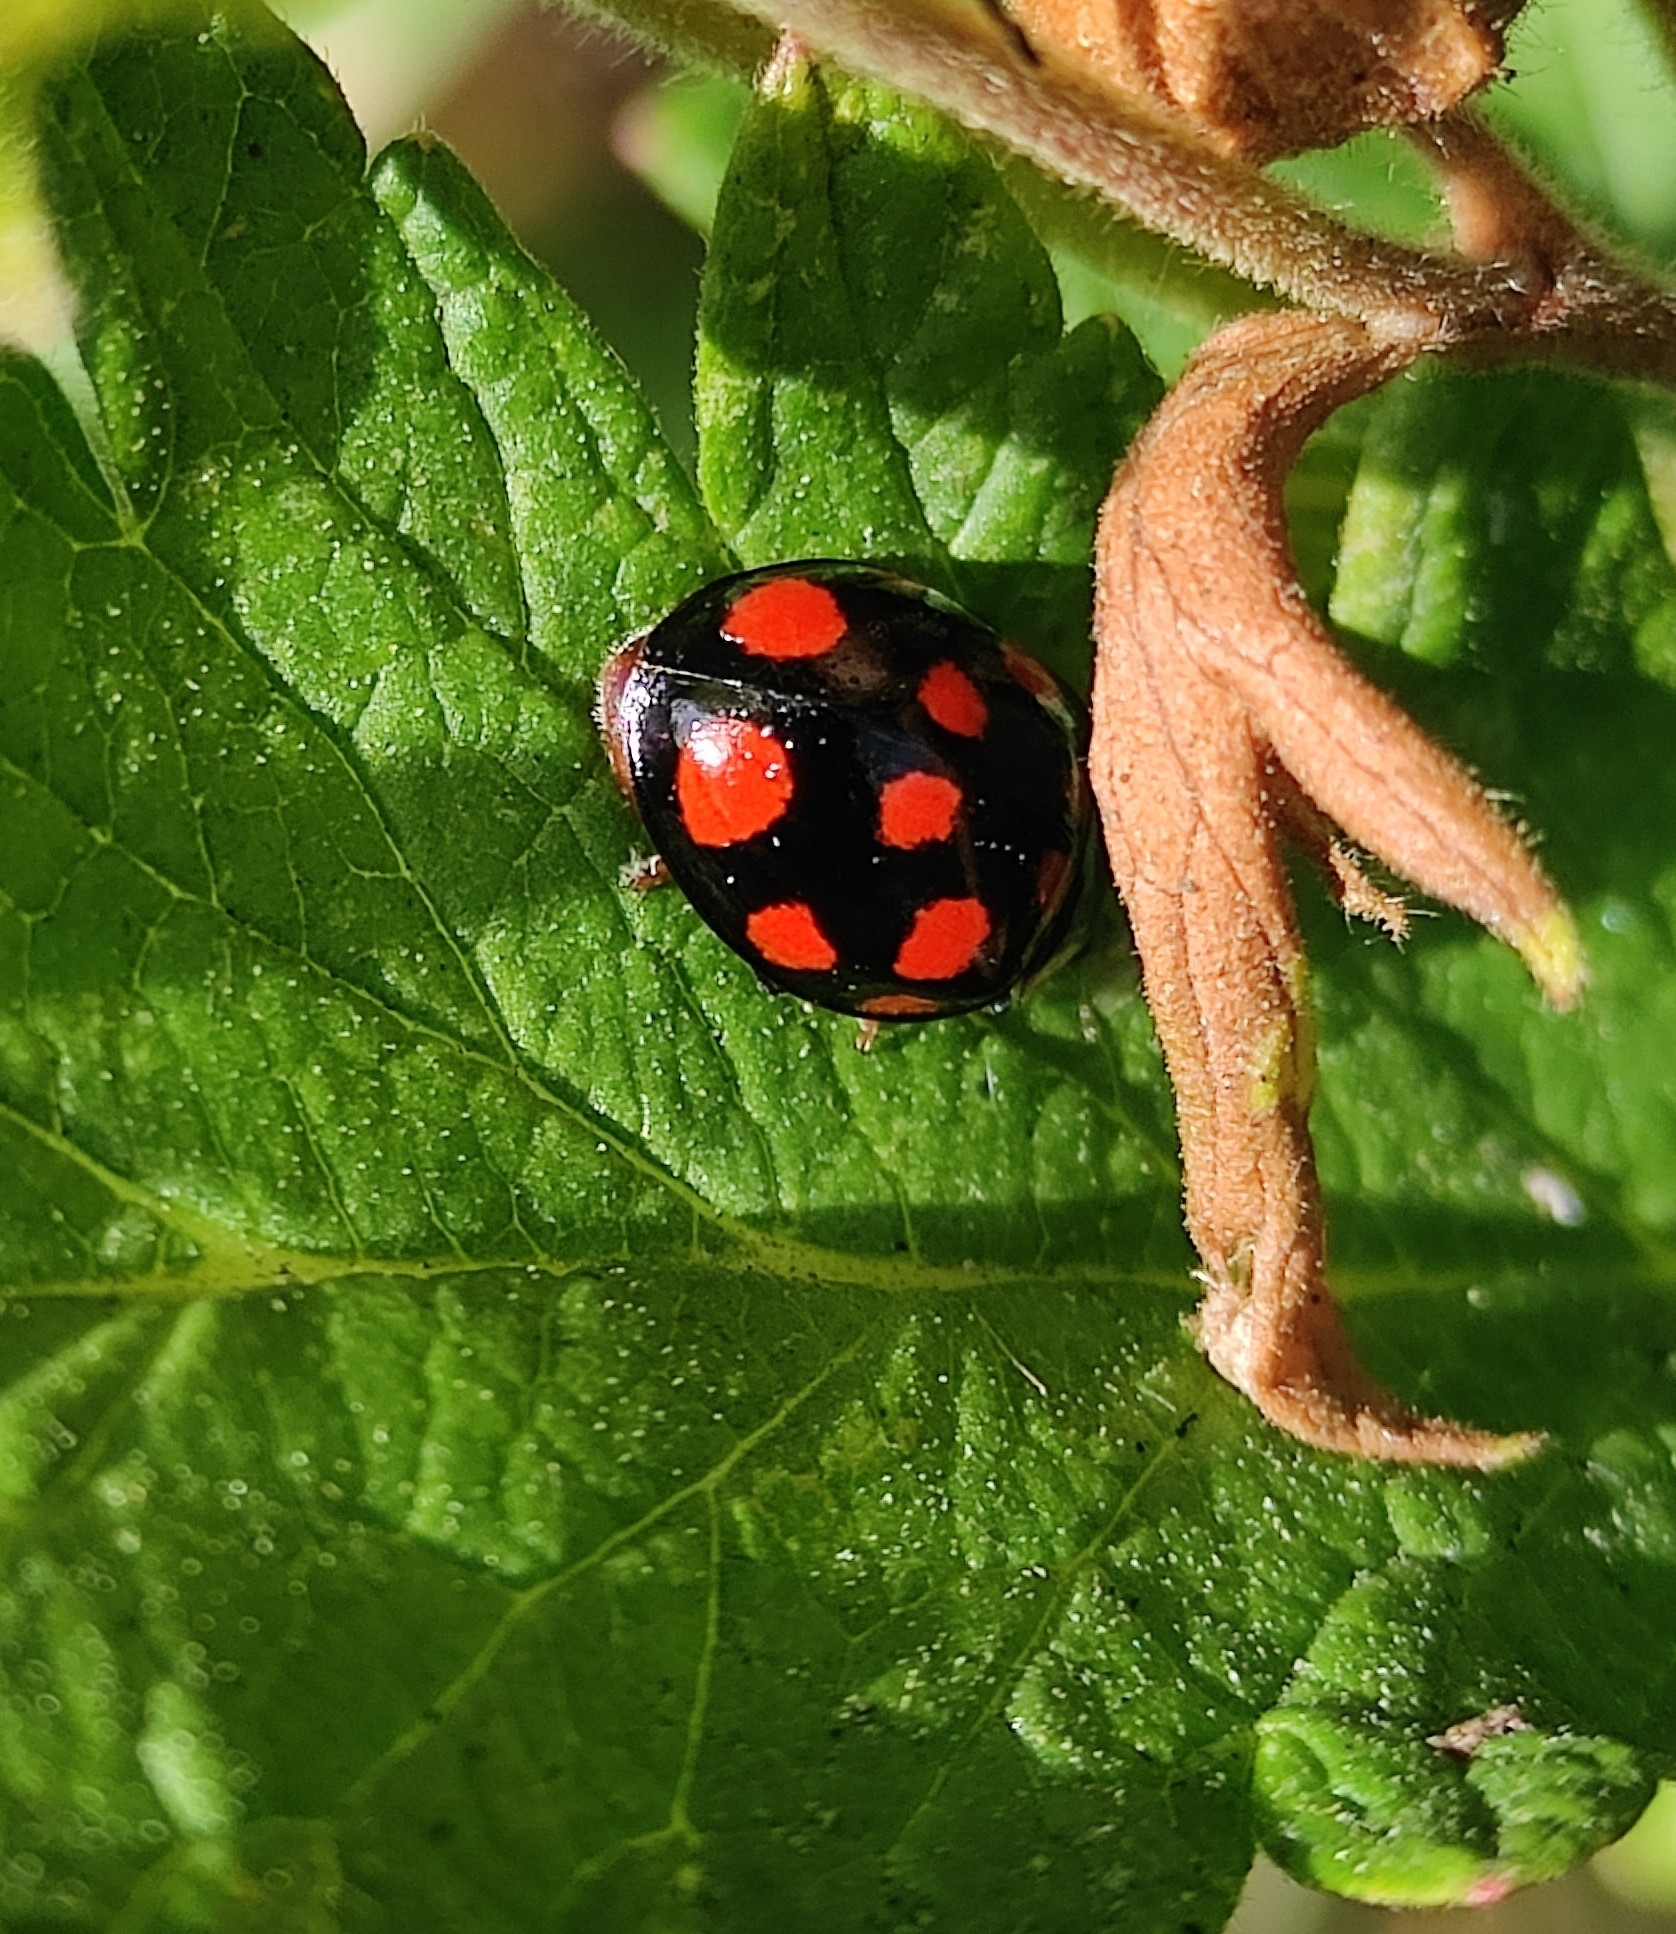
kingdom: Animalia
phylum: Arthropoda
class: Insecta
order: Coleoptera
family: Coccinellidae
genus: Harmonia
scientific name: Harmonia axyridis
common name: Harlequin ladybird
